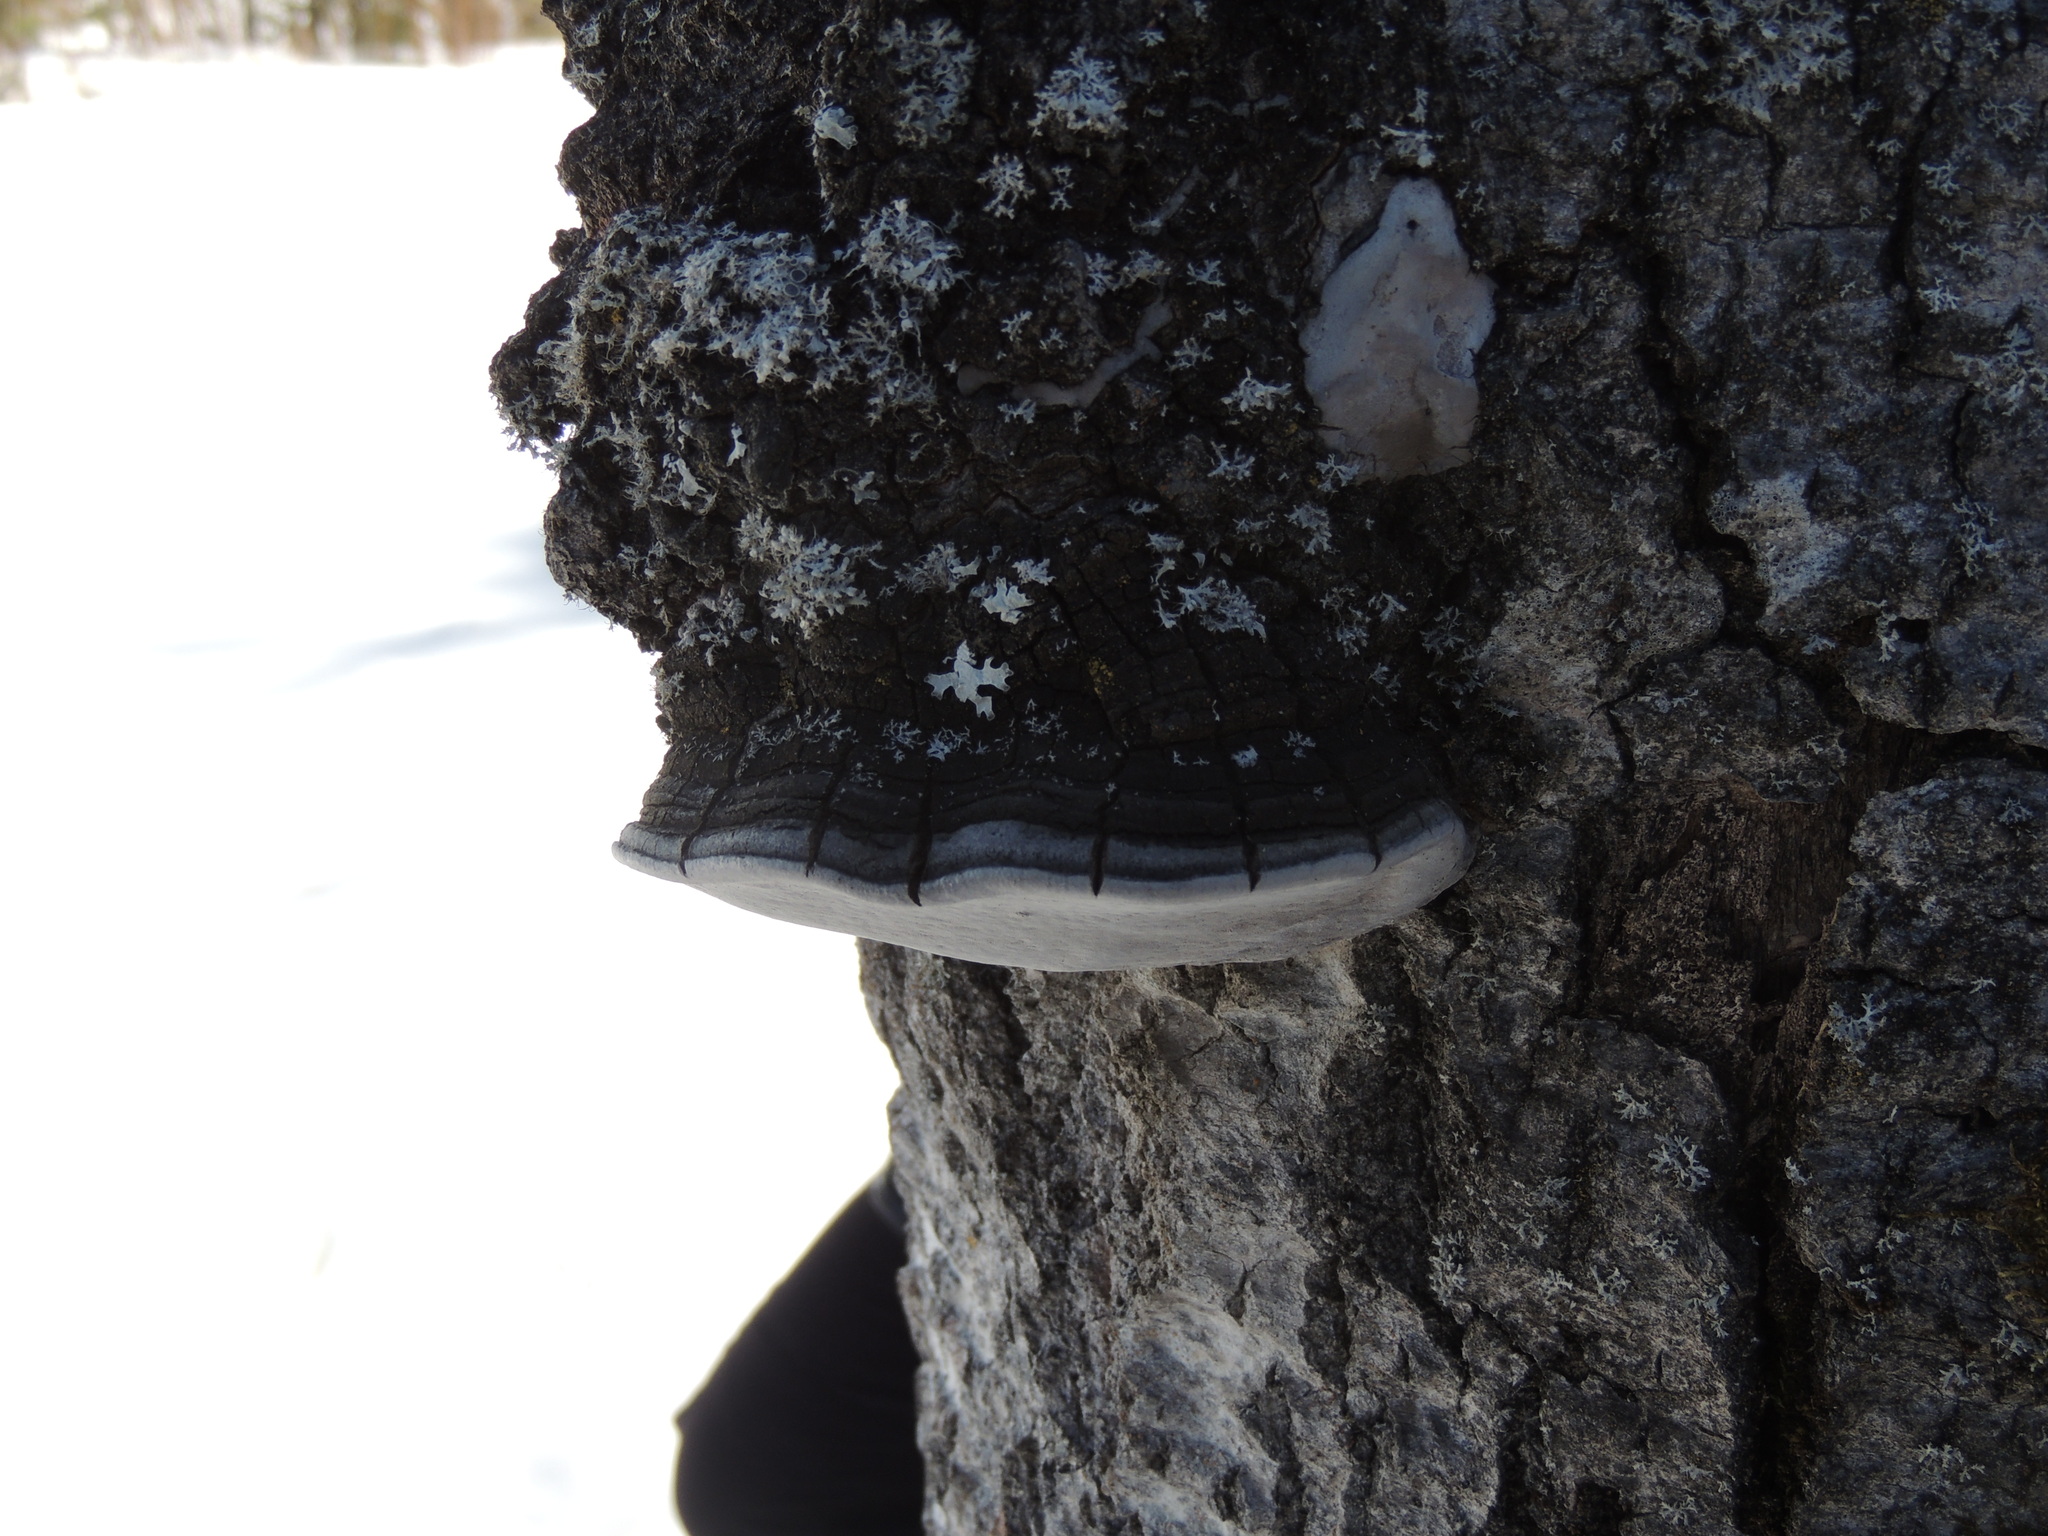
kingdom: Fungi
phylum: Basidiomycota
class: Agaricomycetes
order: Hymenochaetales
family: Hymenochaetaceae
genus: Phellinus
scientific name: Phellinus tremulae
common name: Aspen bracket
